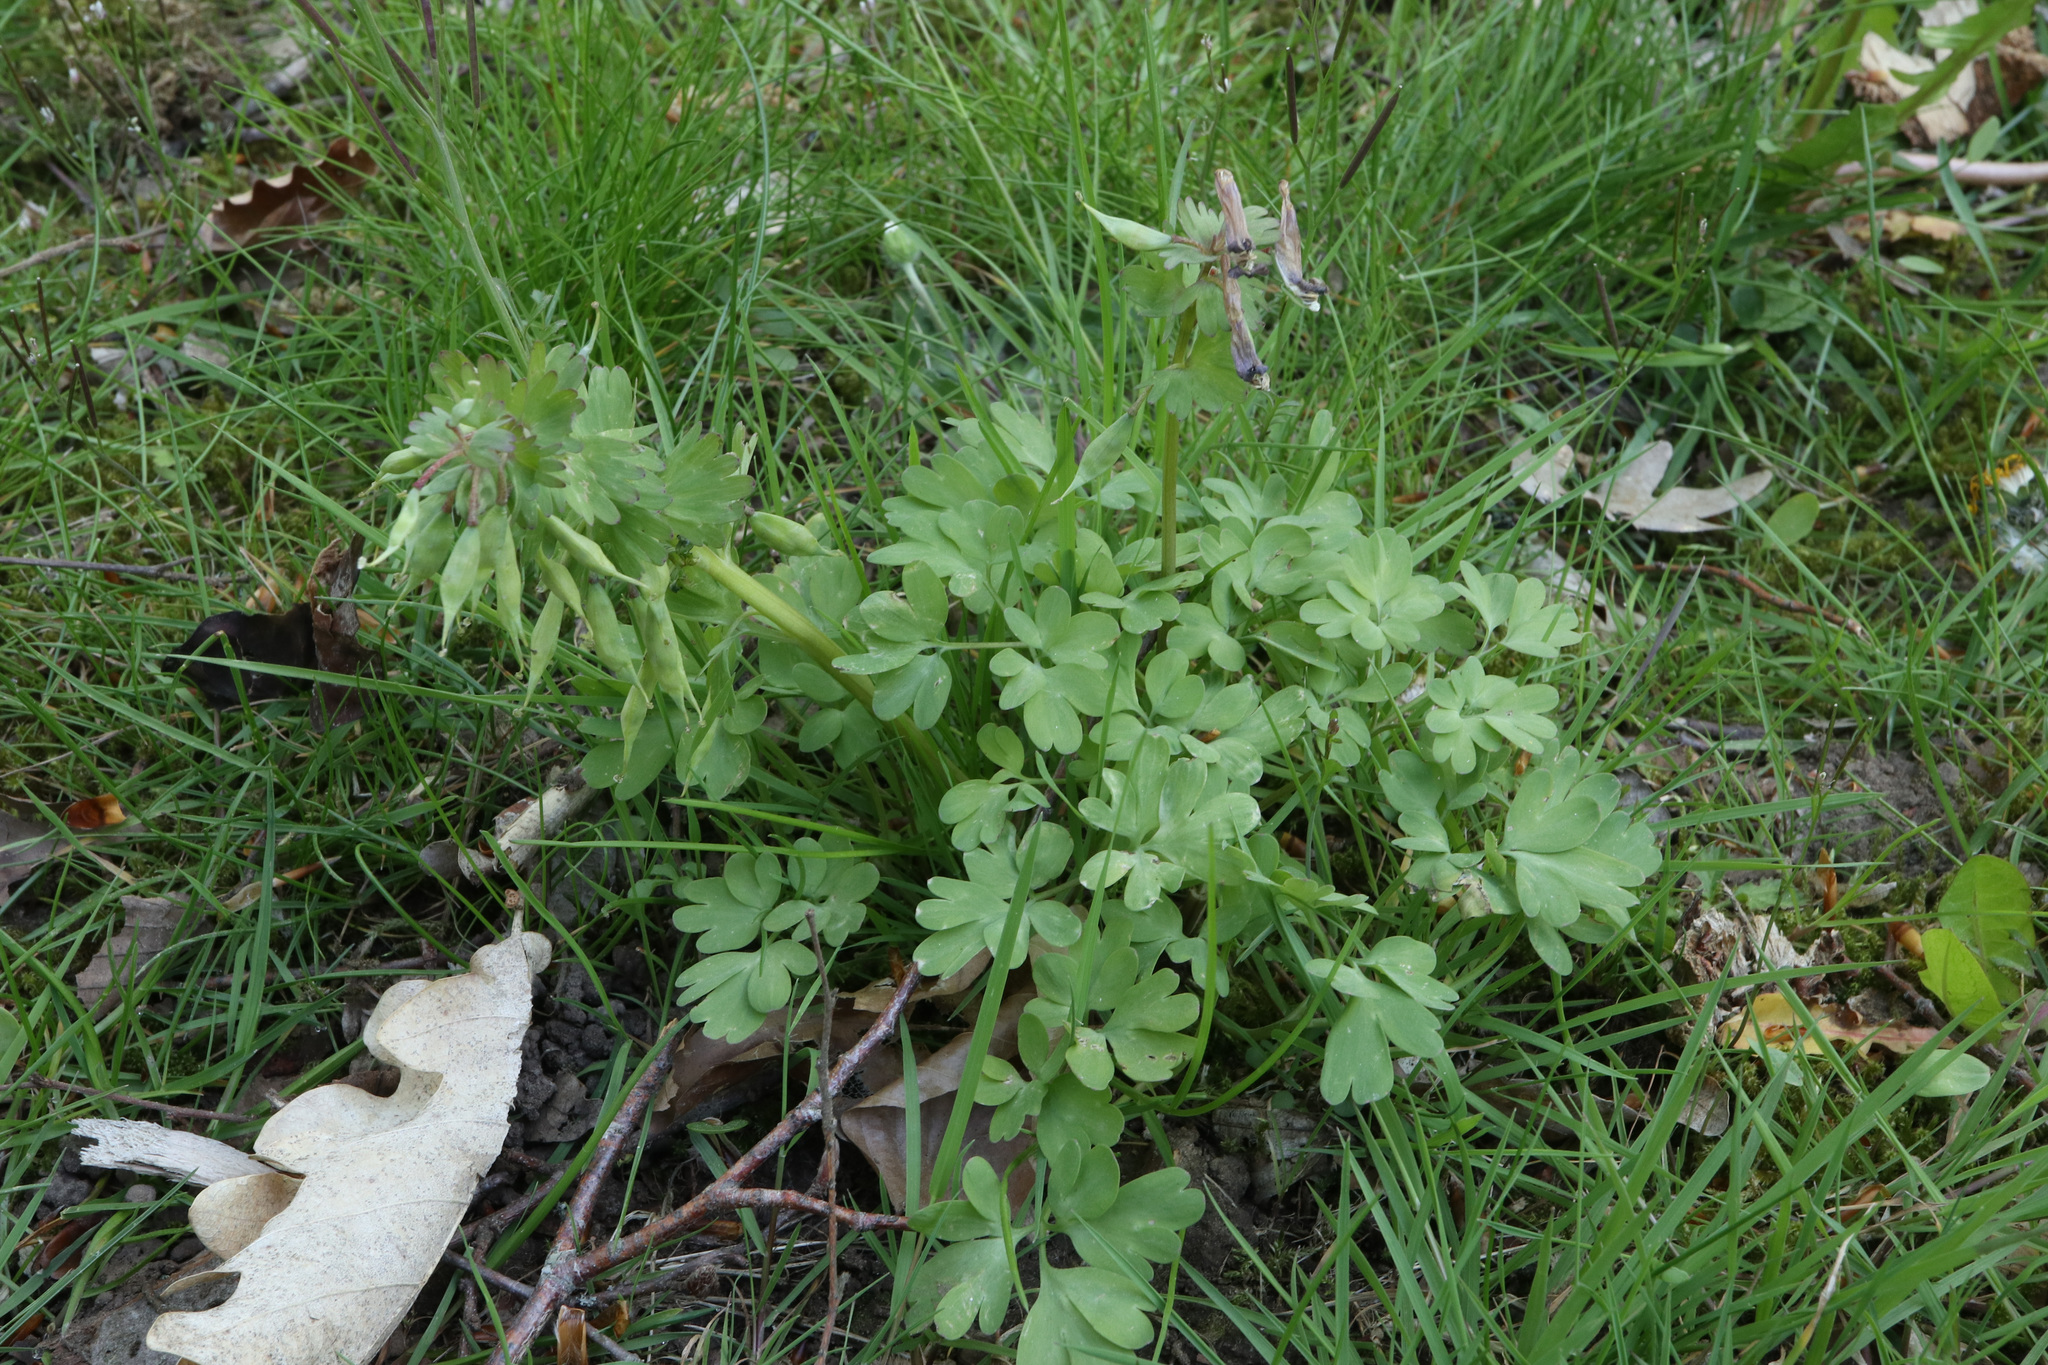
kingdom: Plantae
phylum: Tracheophyta
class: Magnoliopsida
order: Ranunculales
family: Papaveraceae
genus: Corydalis
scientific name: Corydalis solida
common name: Bird-in-a-bush
